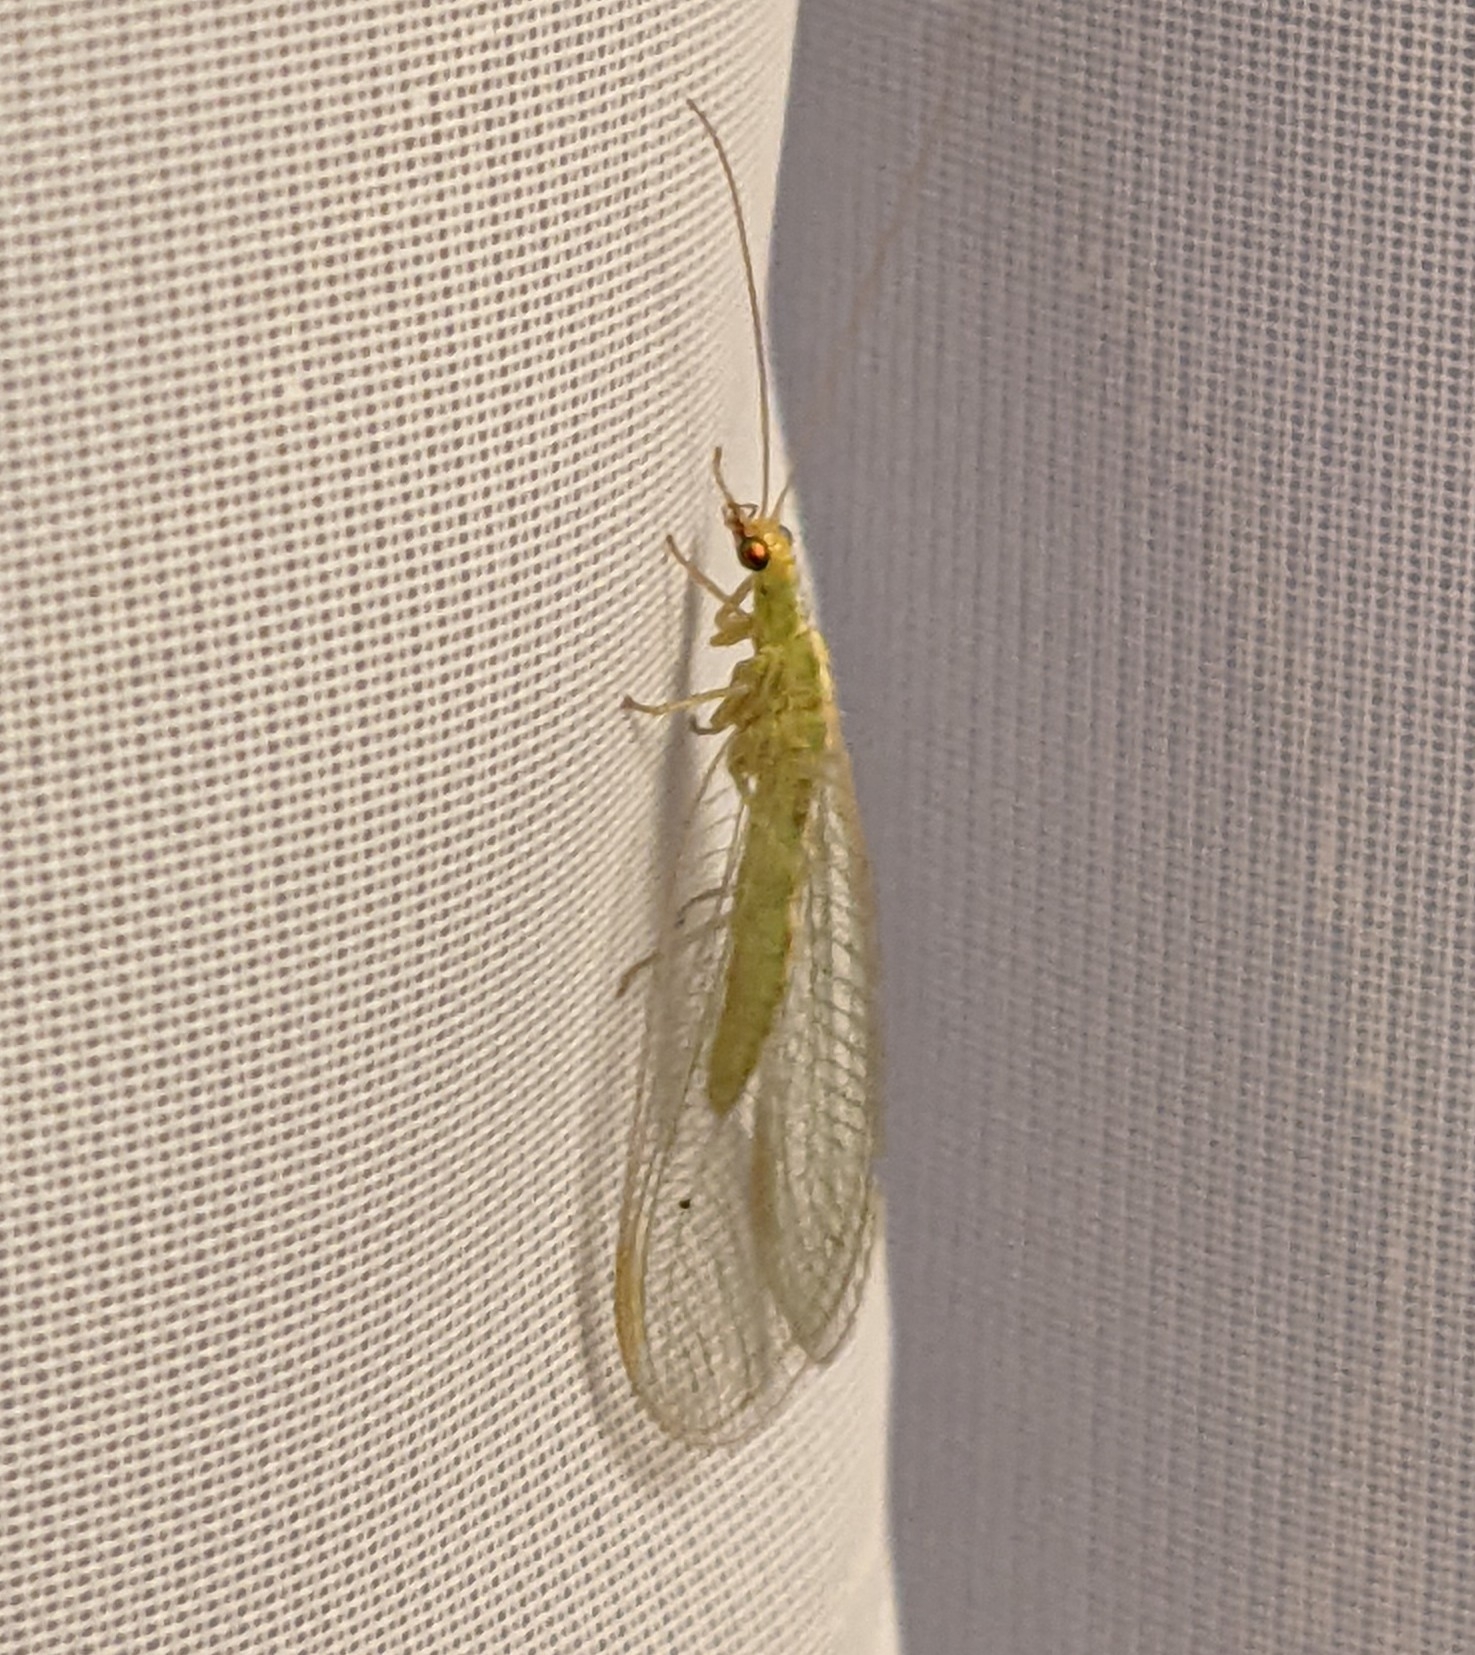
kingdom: Animalia
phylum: Arthropoda
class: Insecta
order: Neuroptera
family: Chrysopidae
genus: Chrysoperla
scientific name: Chrysoperla
